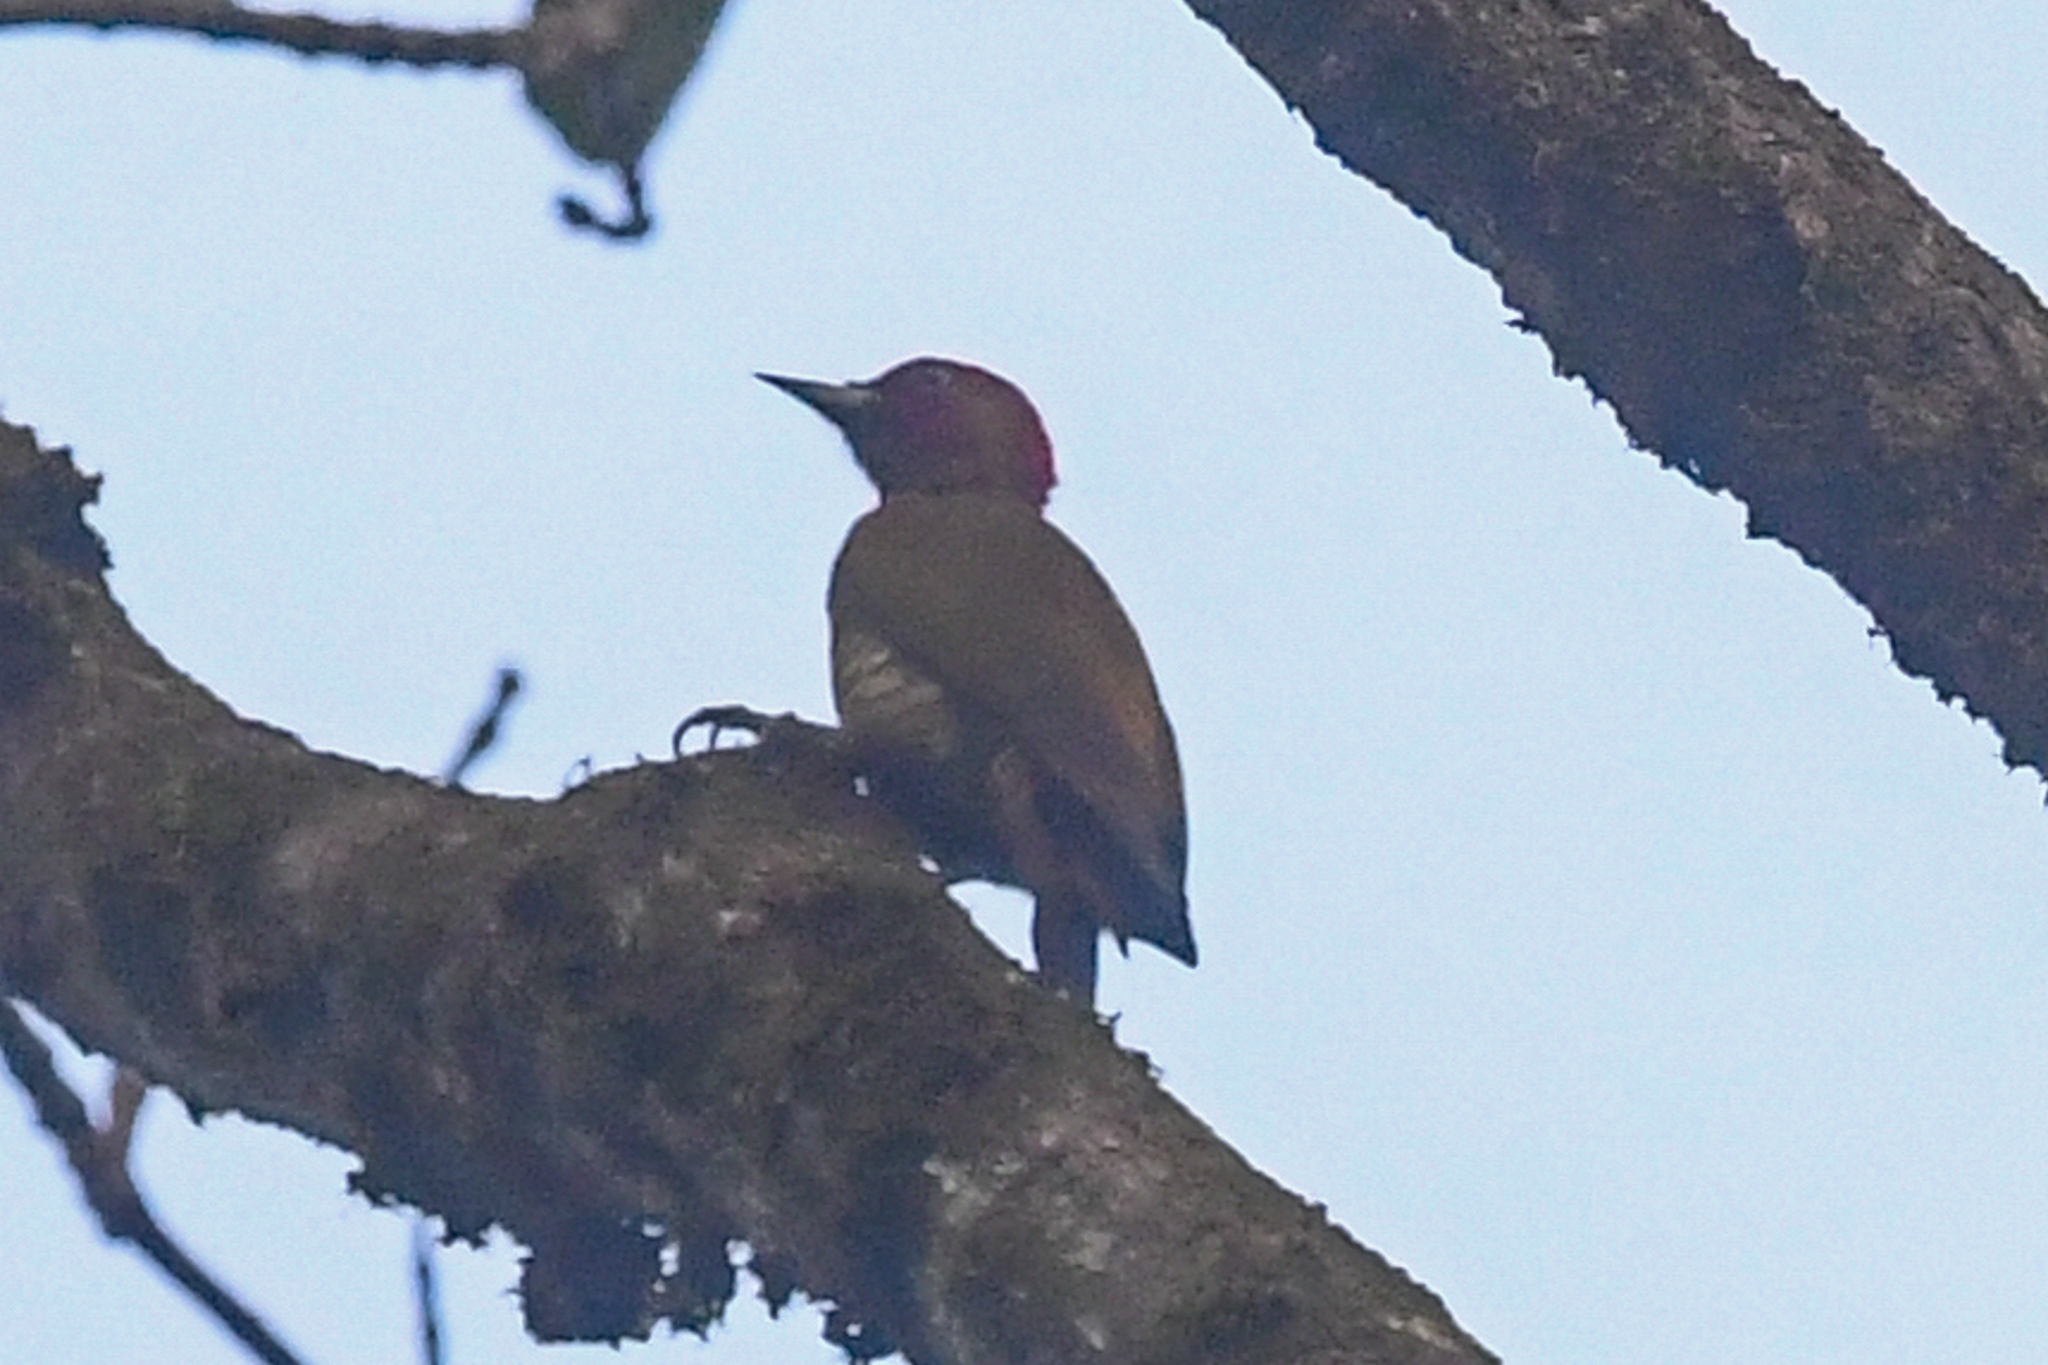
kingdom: Animalia
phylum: Chordata
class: Aves
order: Piciformes
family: Picidae
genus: Piculus
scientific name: Piculus simplex
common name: Rufous-winged woodpecker
